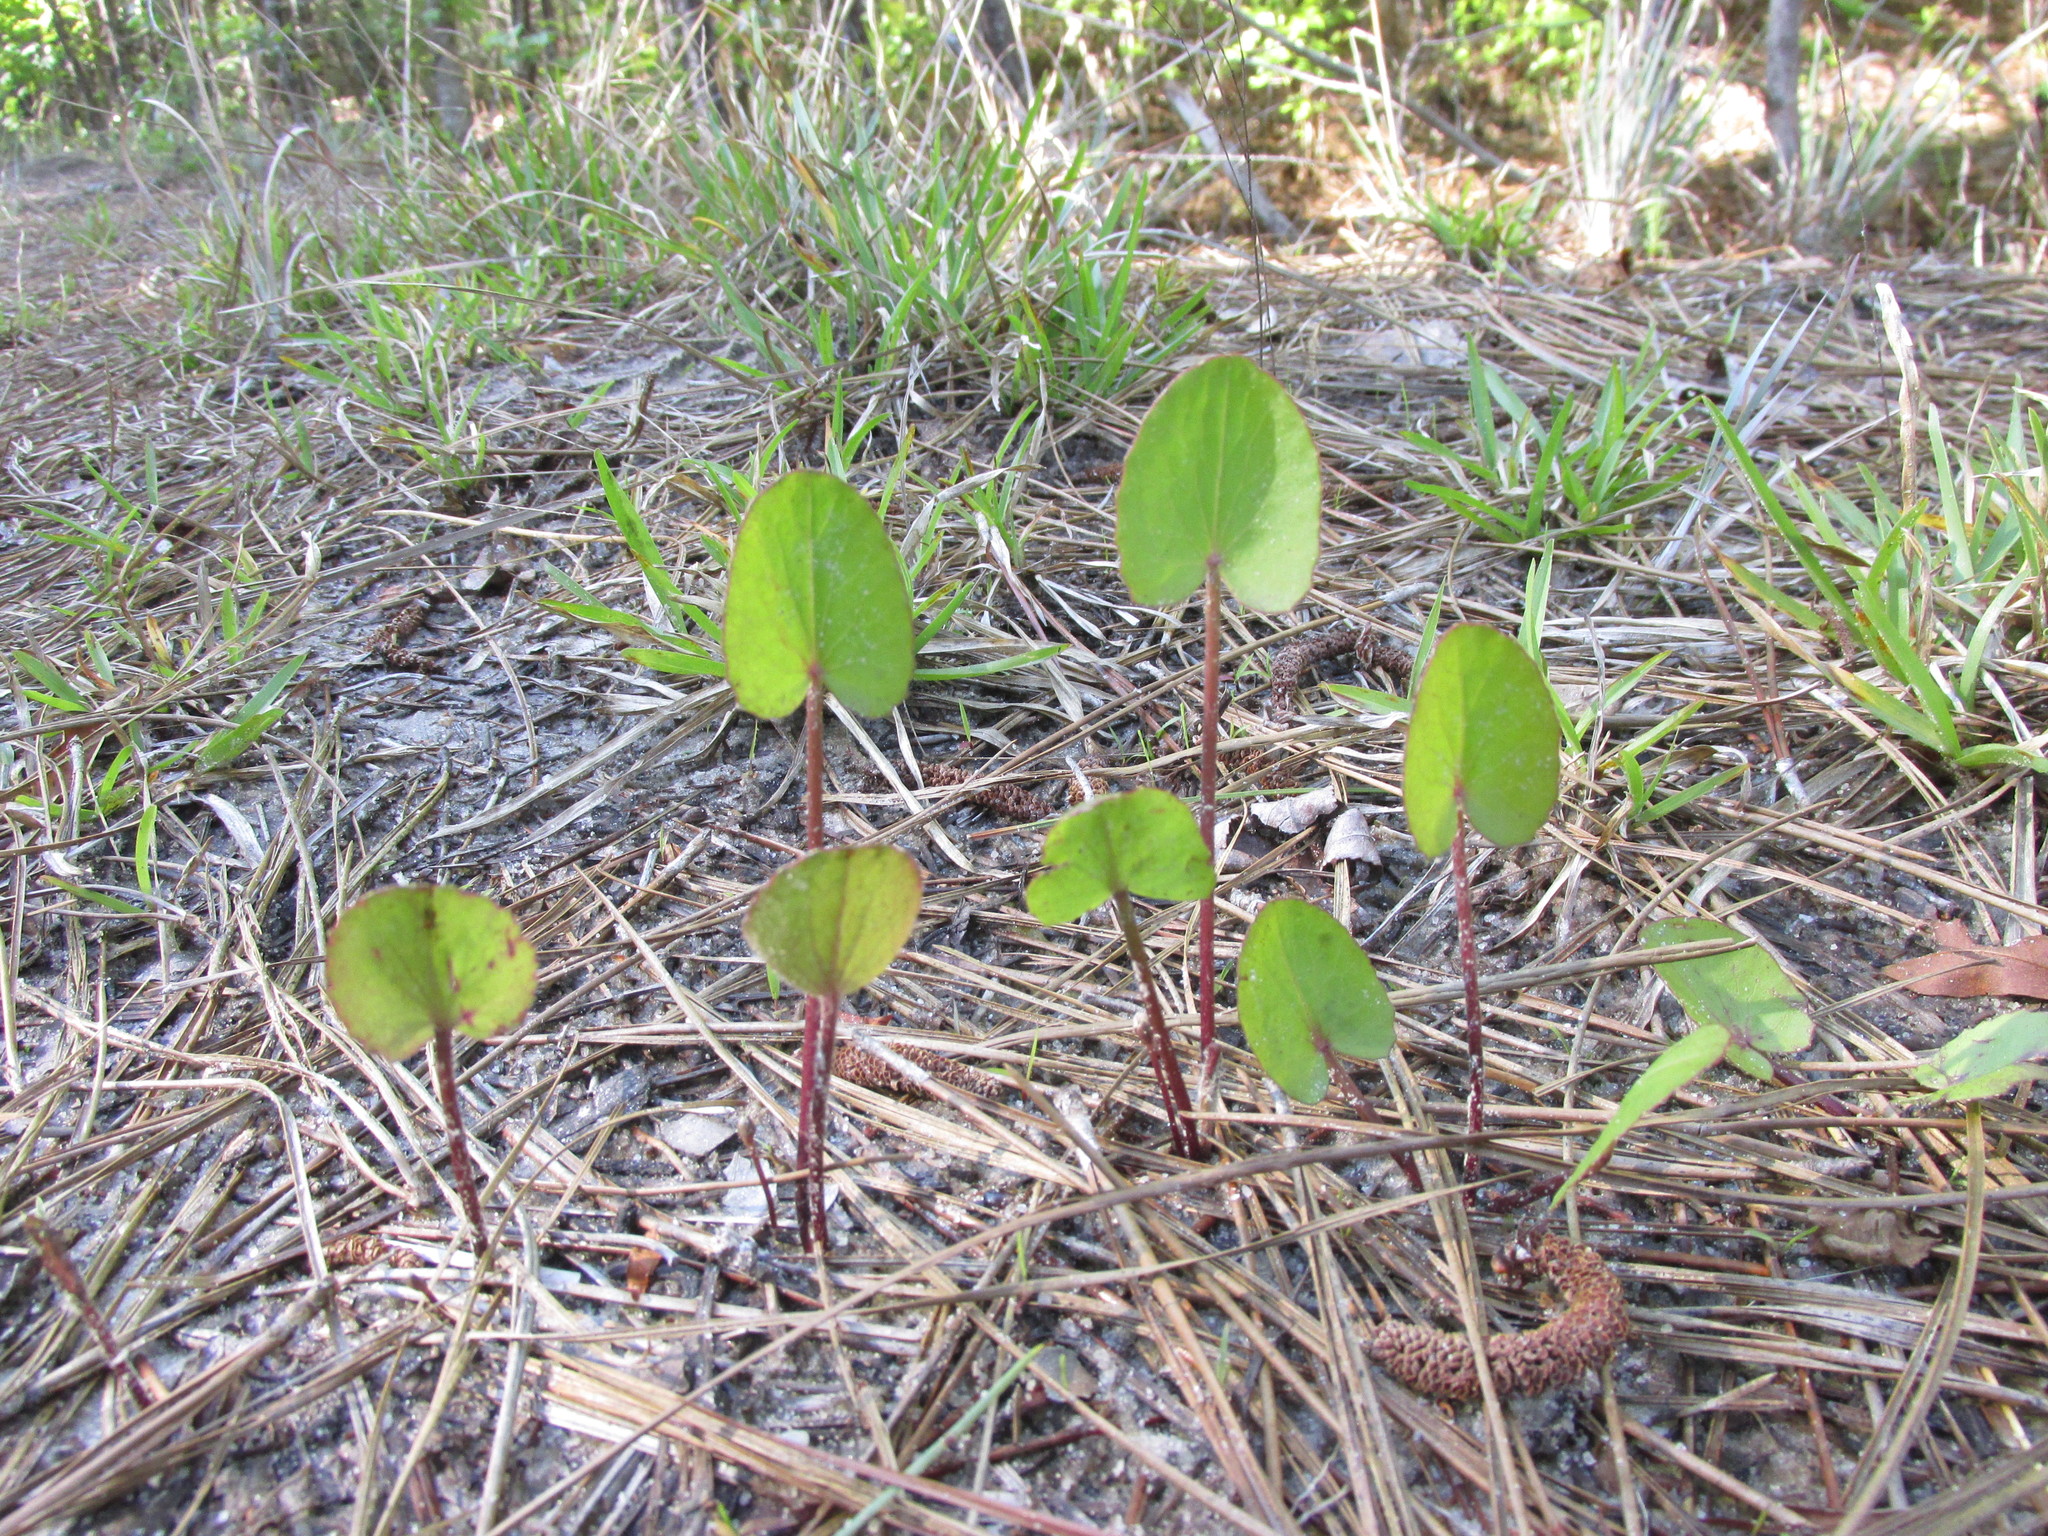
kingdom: Plantae
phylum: Tracheophyta
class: Magnoliopsida
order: Apiales
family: Apiaceae
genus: Centella
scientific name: Centella erecta
